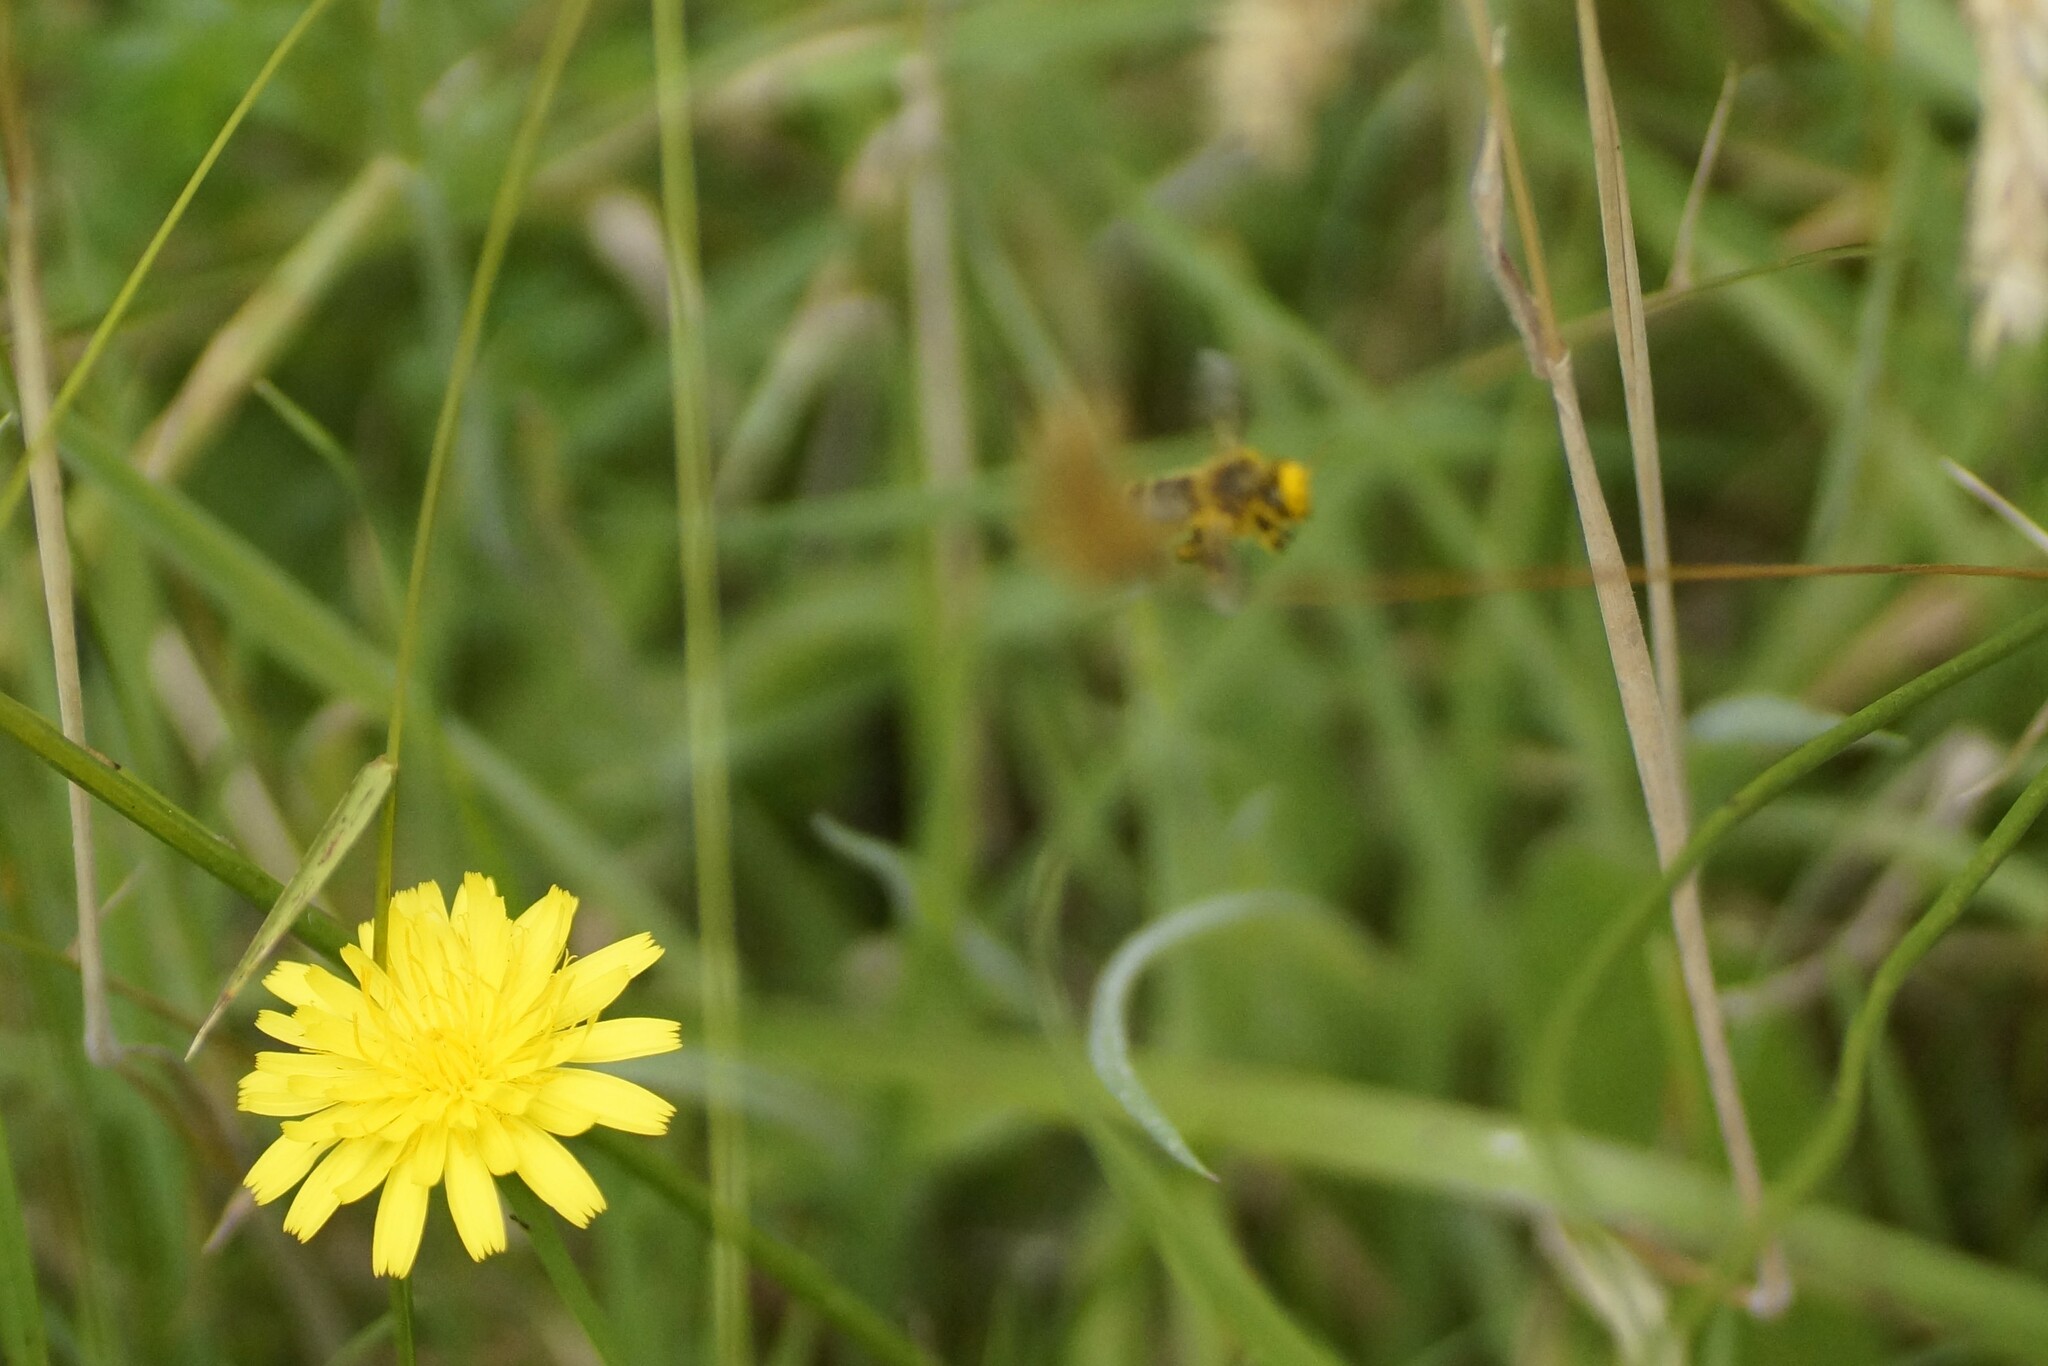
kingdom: Animalia
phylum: Arthropoda
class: Insecta
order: Hymenoptera
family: Apidae
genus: Apis
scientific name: Apis mellifera
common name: Honey bee
